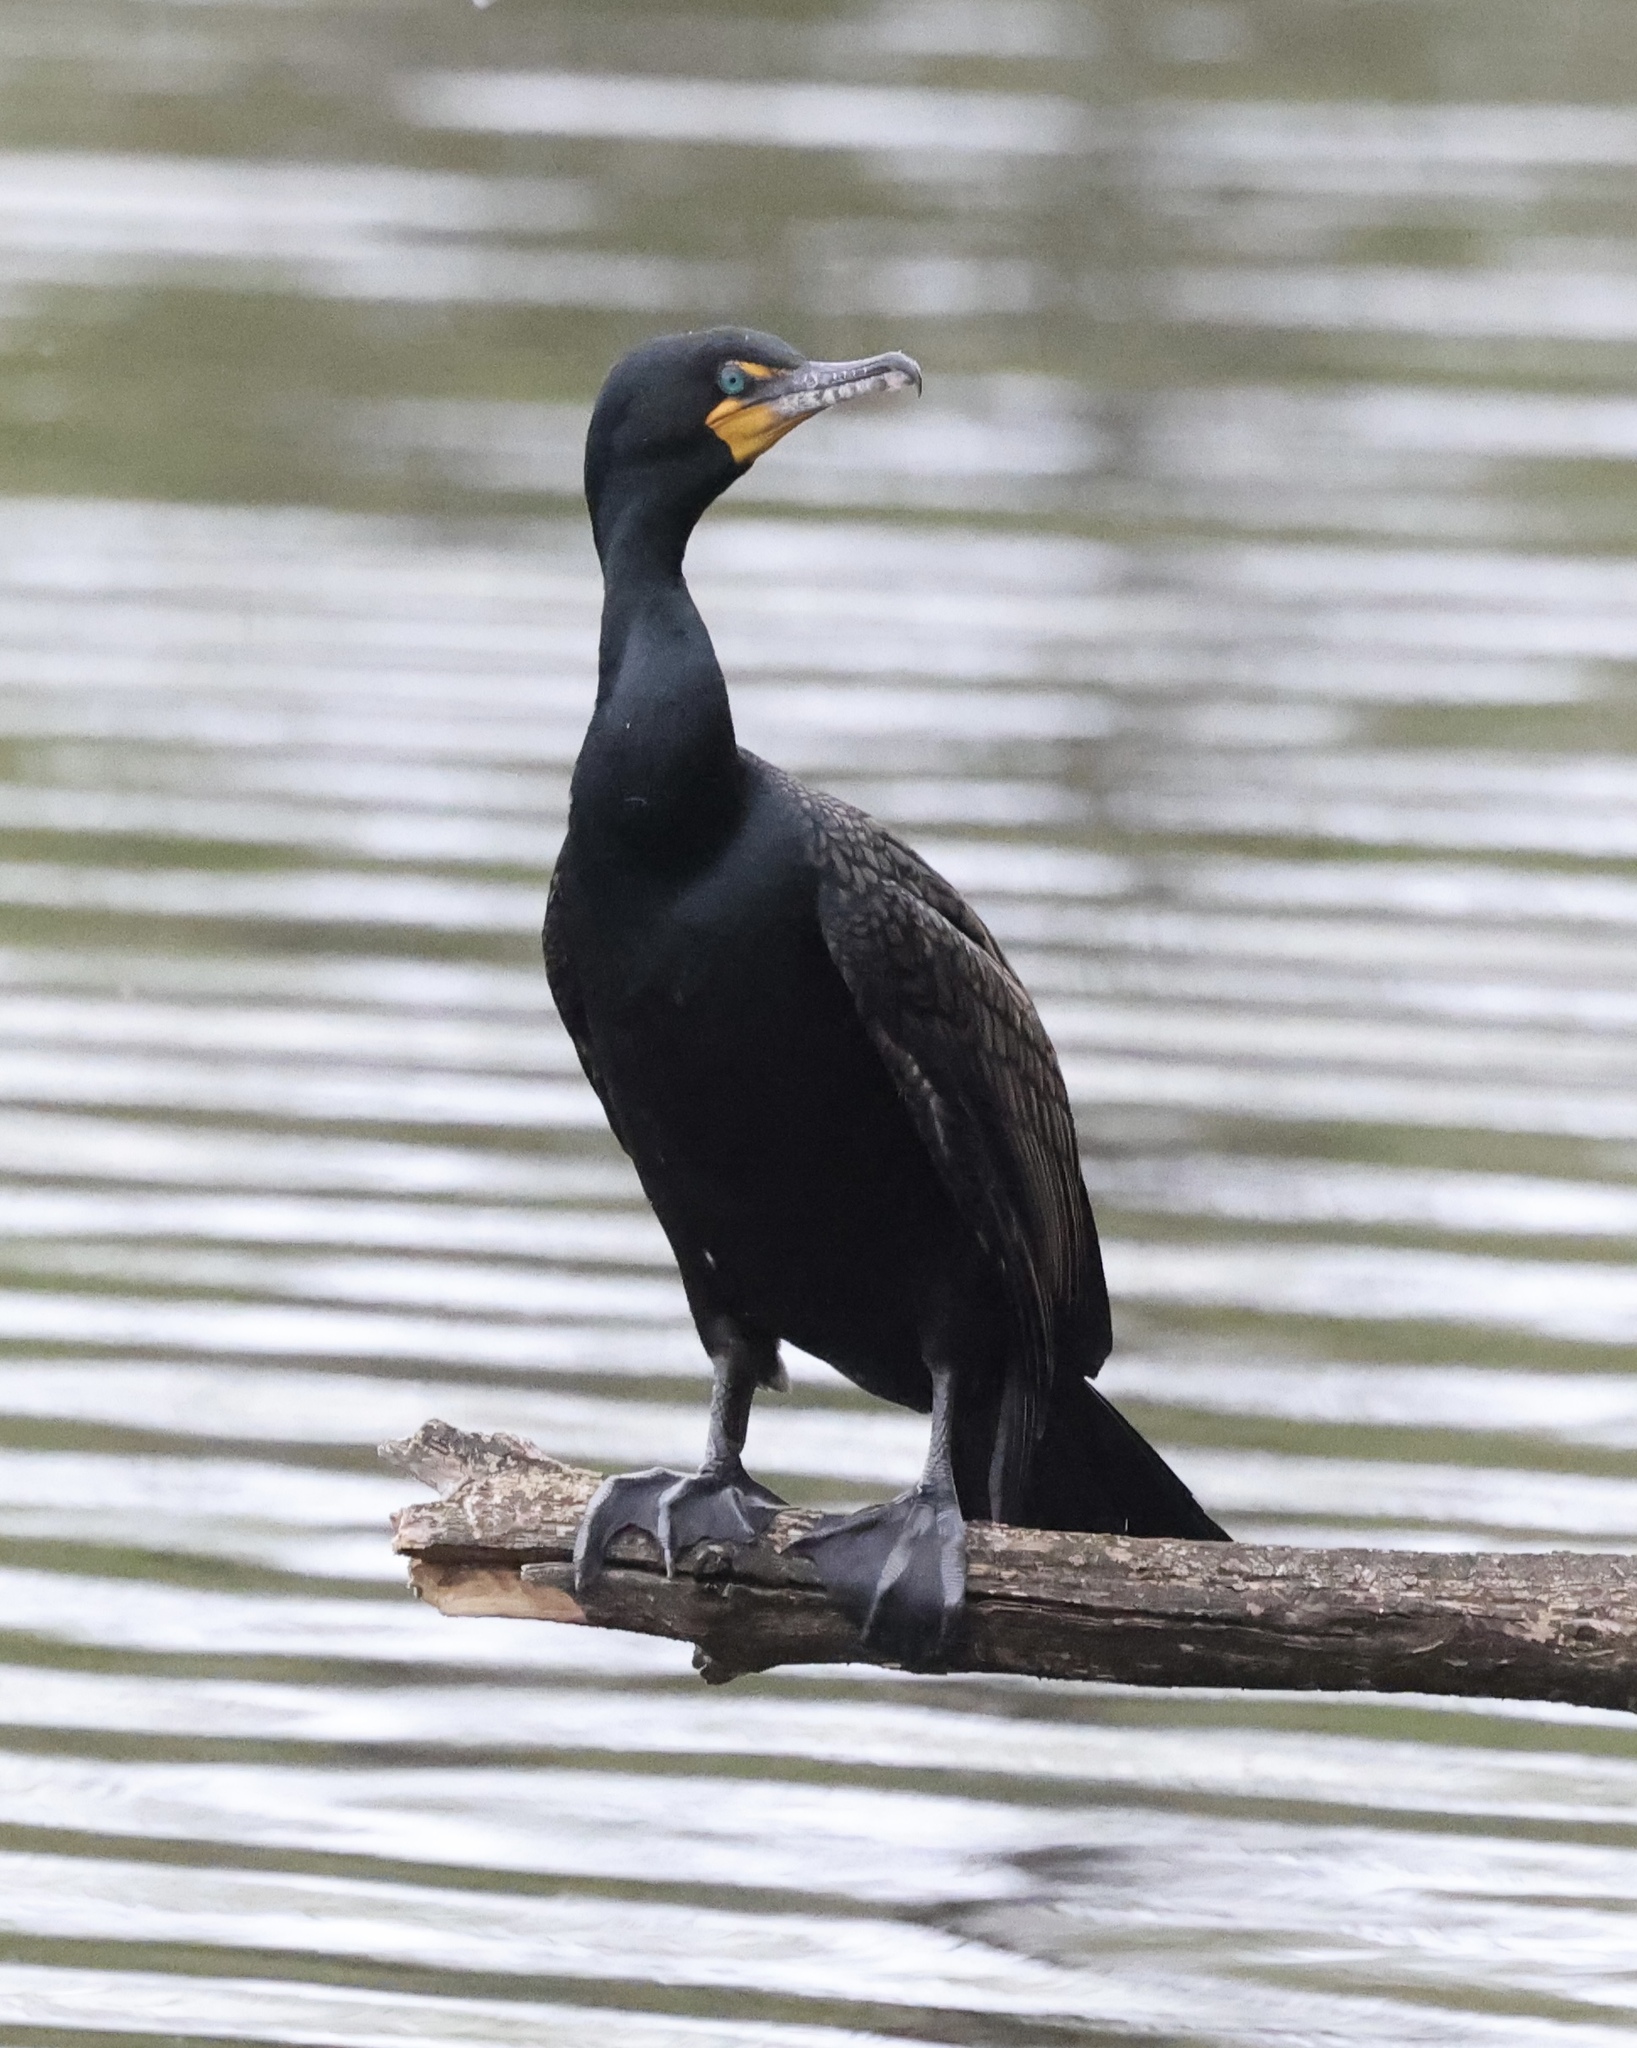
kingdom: Animalia
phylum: Chordata
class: Aves
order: Suliformes
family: Phalacrocoracidae
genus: Phalacrocorax
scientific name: Phalacrocorax auritus
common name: Double-crested cormorant
